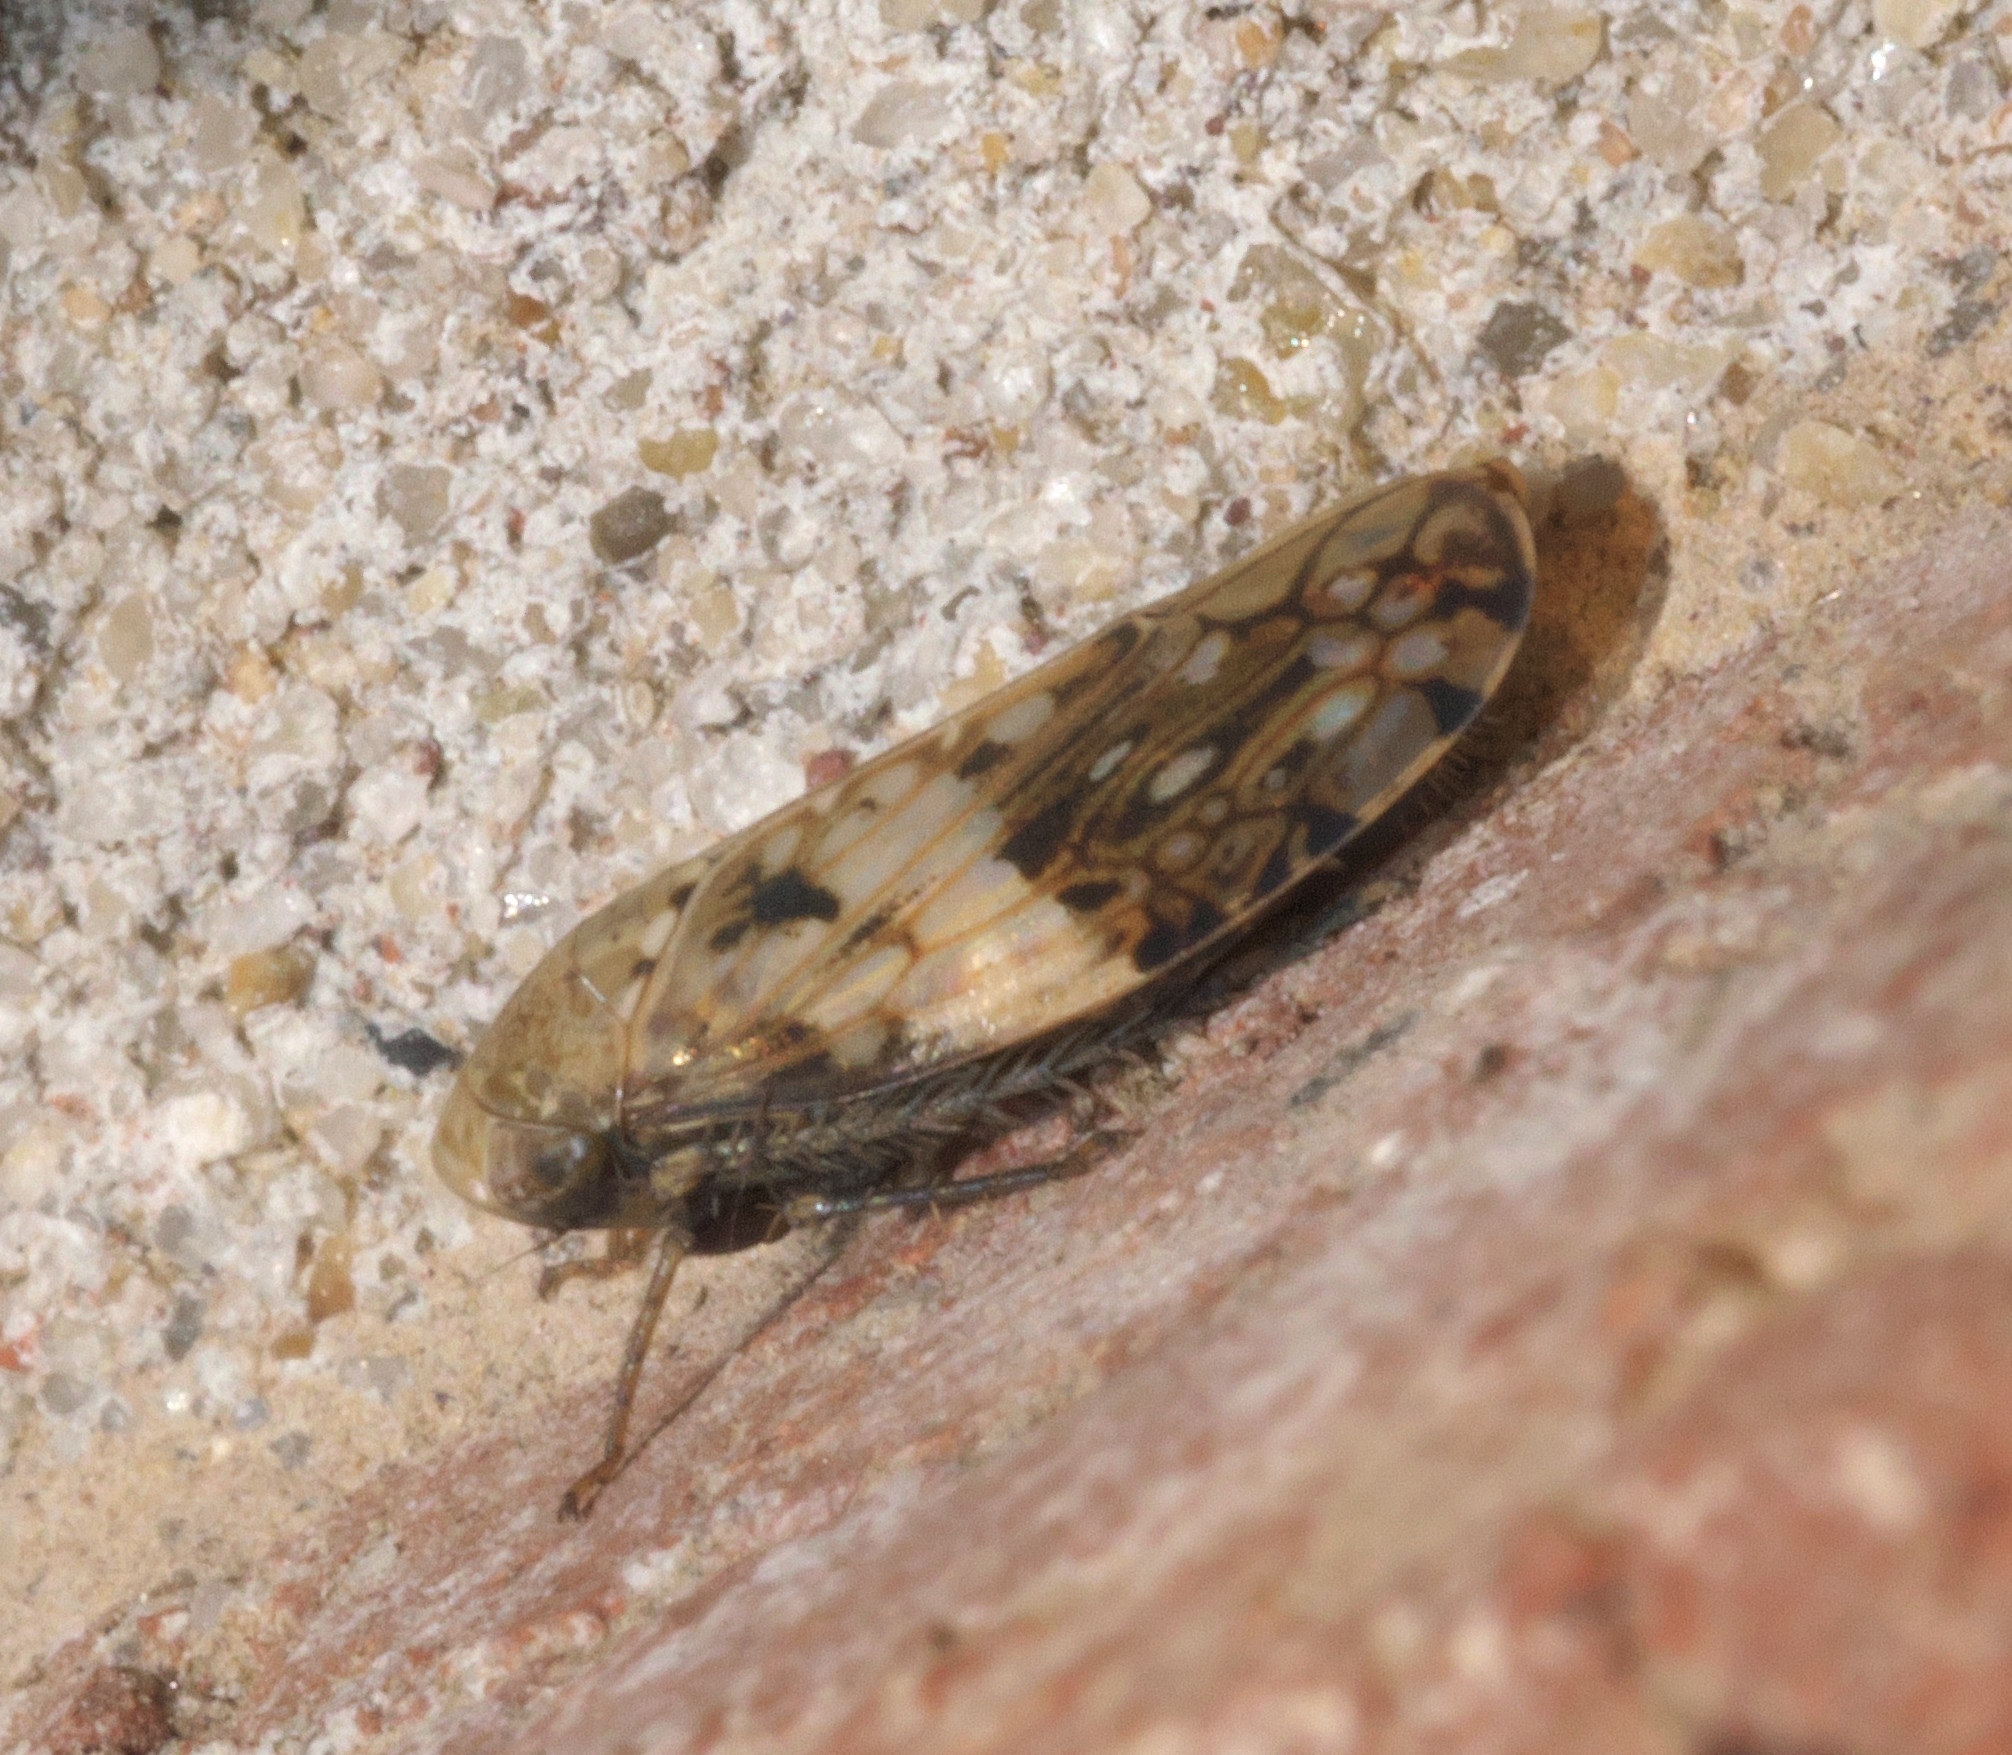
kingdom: Animalia
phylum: Arthropoda
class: Insecta
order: Hemiptera
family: Cicadellidae
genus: Menosoma
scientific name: Menosoma cinctum
